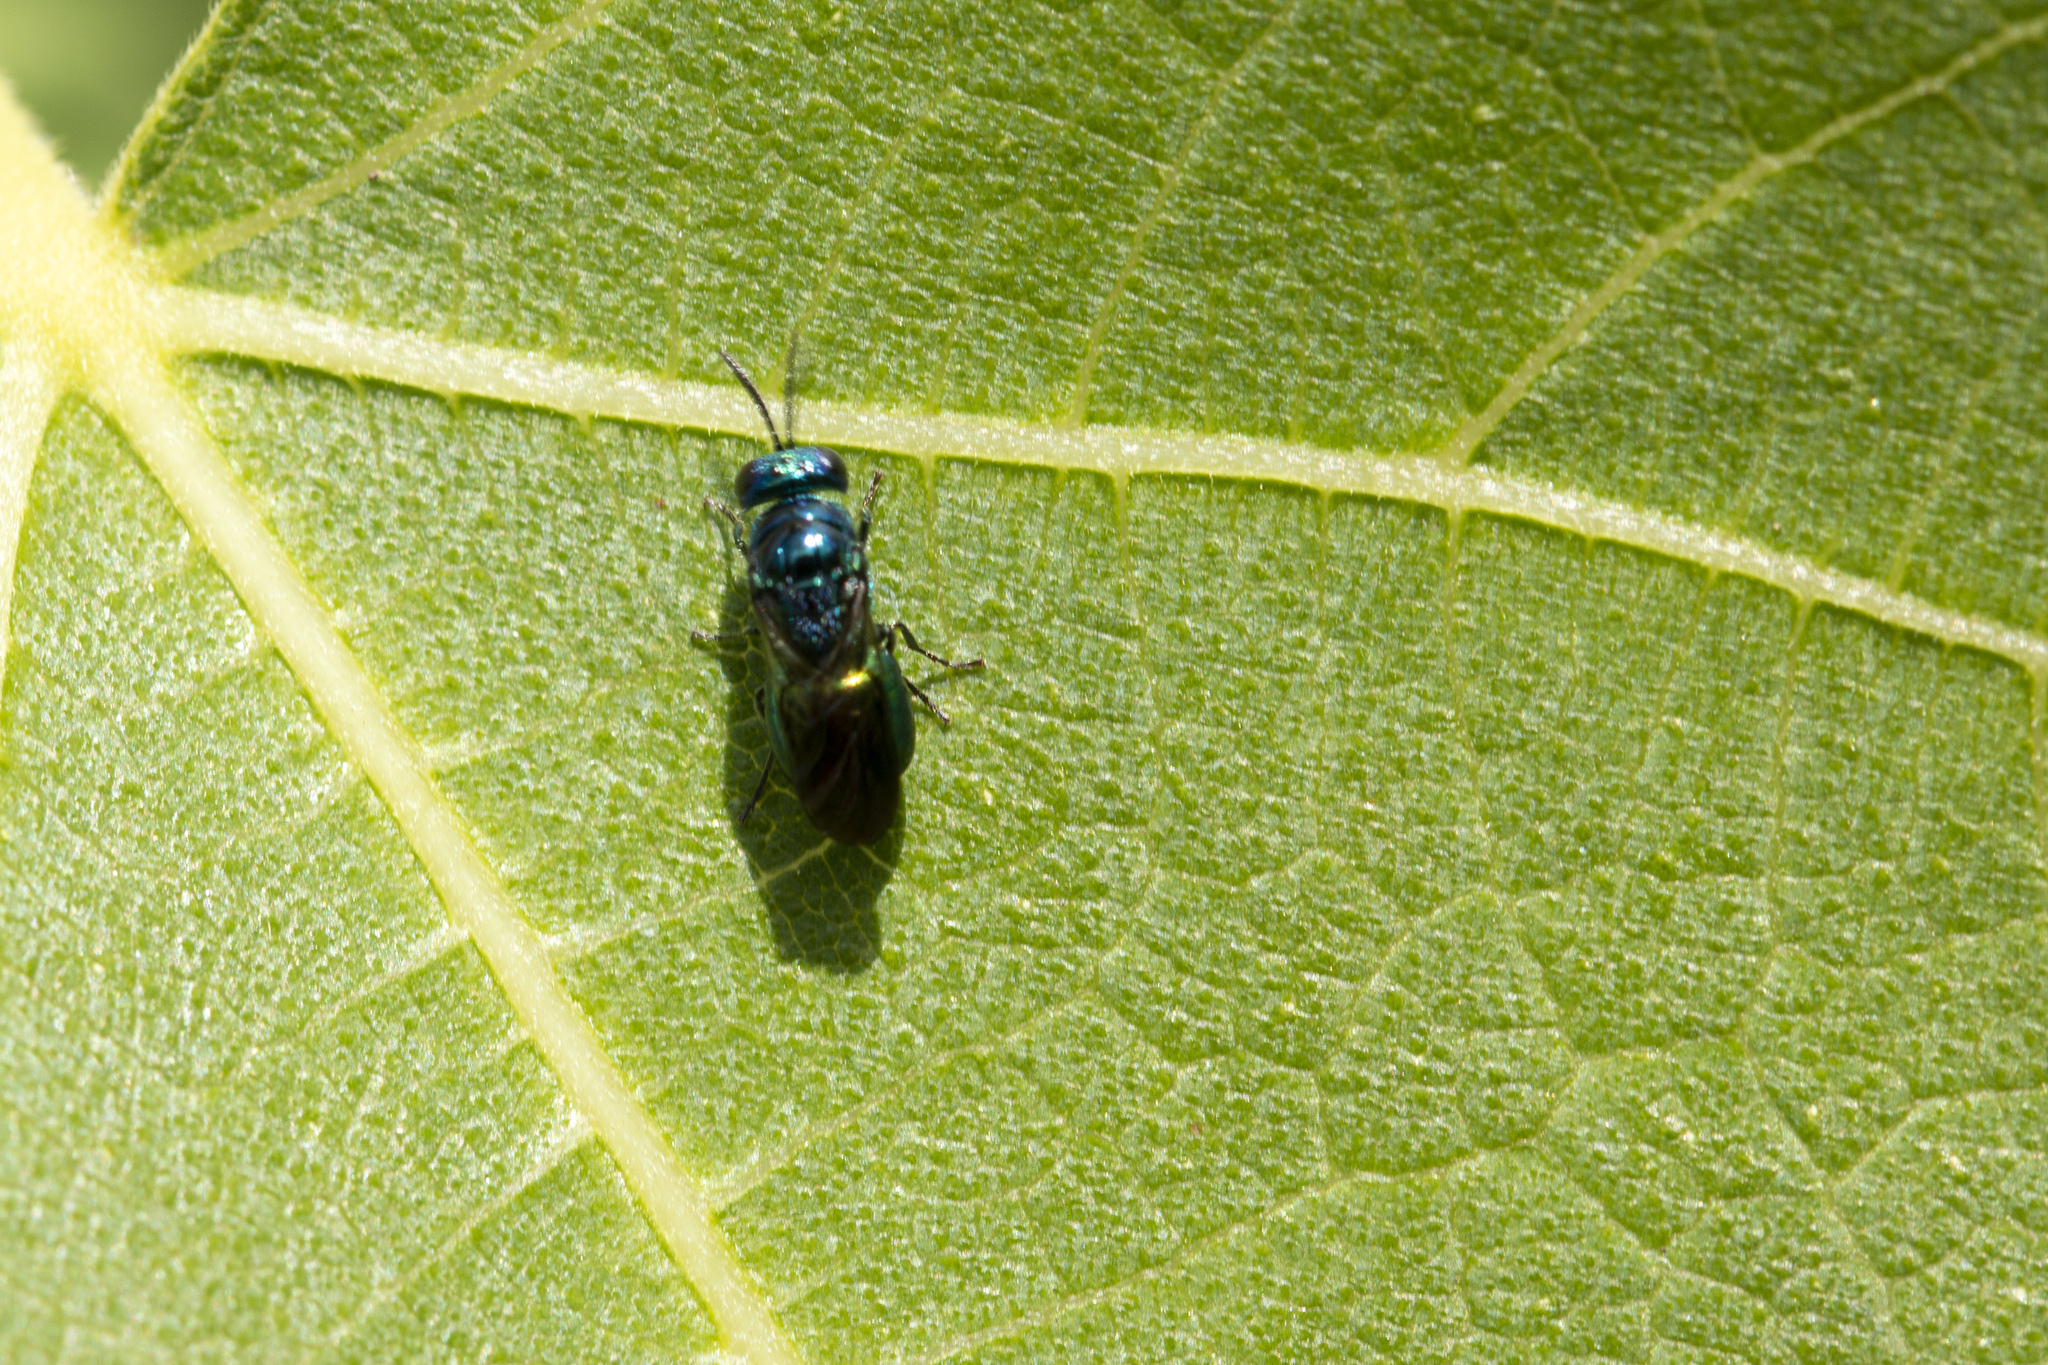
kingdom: Animalia
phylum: Arthropoda
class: Insecta
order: Hymenoptera
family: Chrysididae
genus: Omalus
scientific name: Omalus
